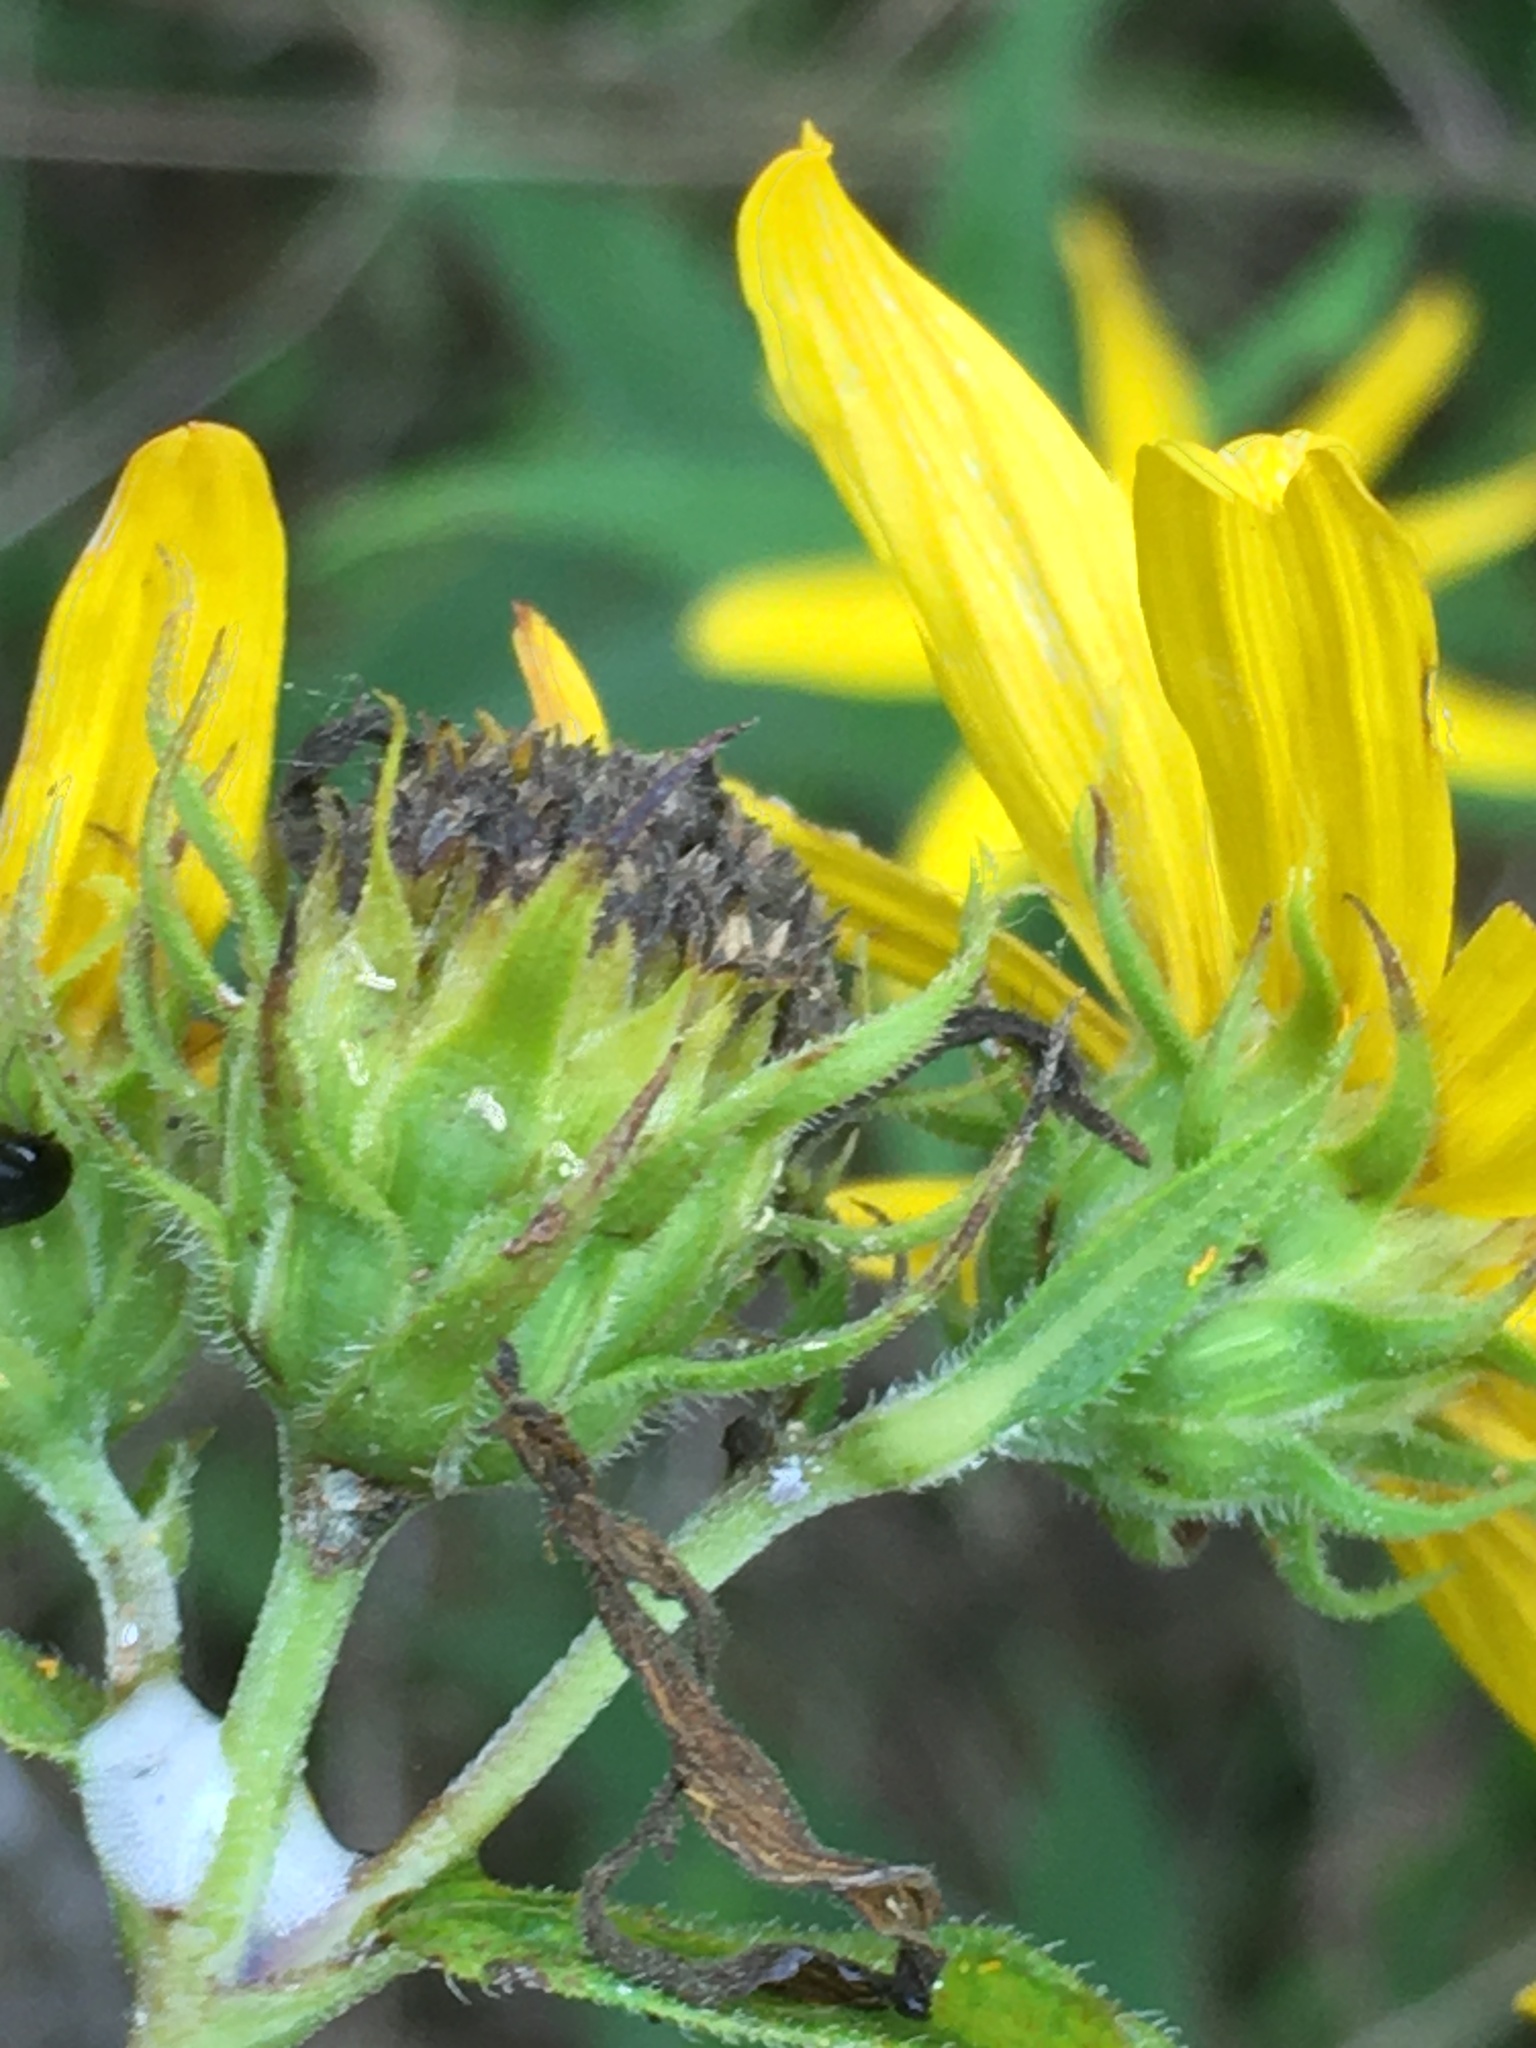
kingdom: Plantae
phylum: Tracheophyta
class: Magnoliopsida
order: Asterales
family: Asteraceae
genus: Helianthus
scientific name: Helianthus divaricatus
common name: Divergent sunflower
